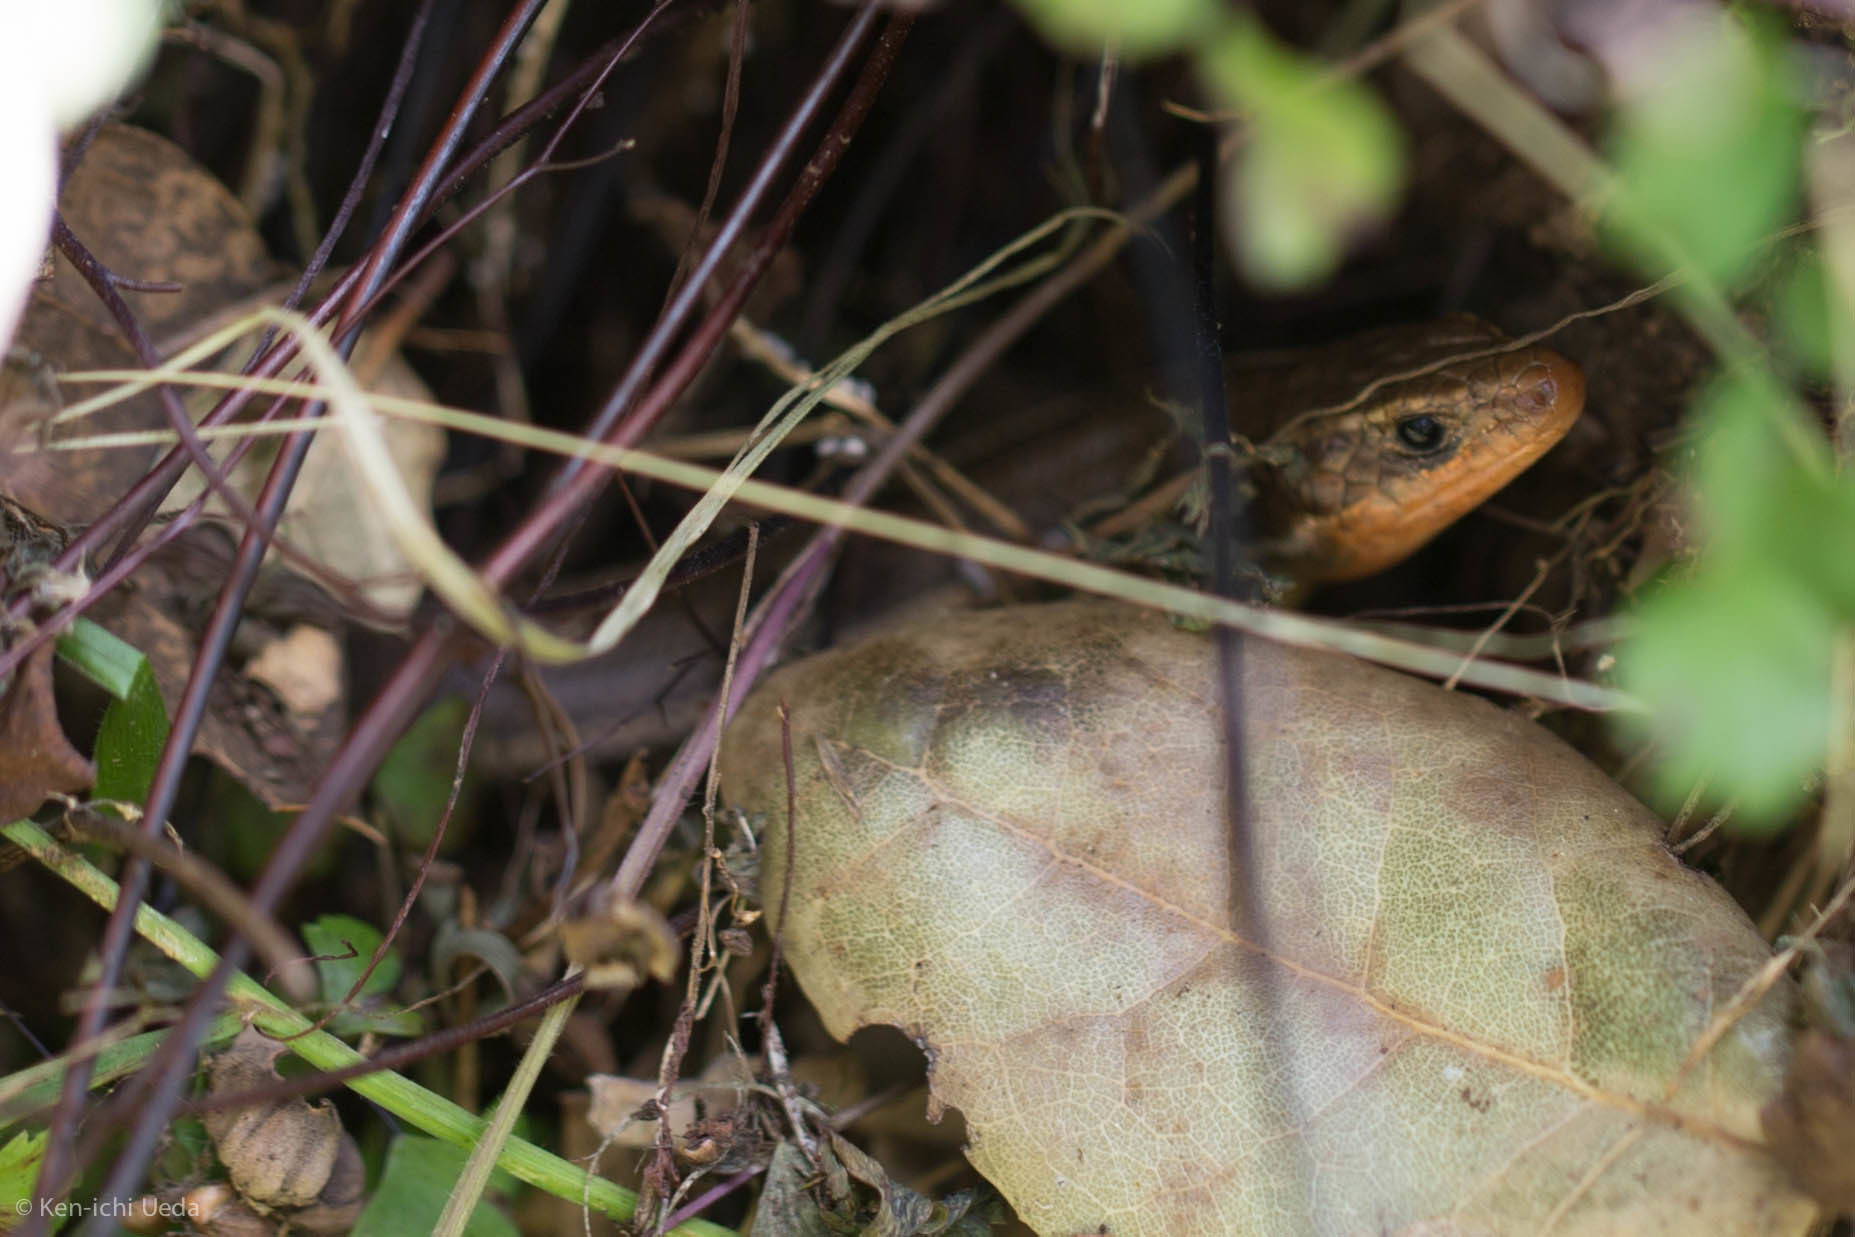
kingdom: Animalia
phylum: Chordata
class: Squamata
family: Scincidae
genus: Plestiodon
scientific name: Plestiodon skiltonianus
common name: Coronado island skink [interparietalis]
